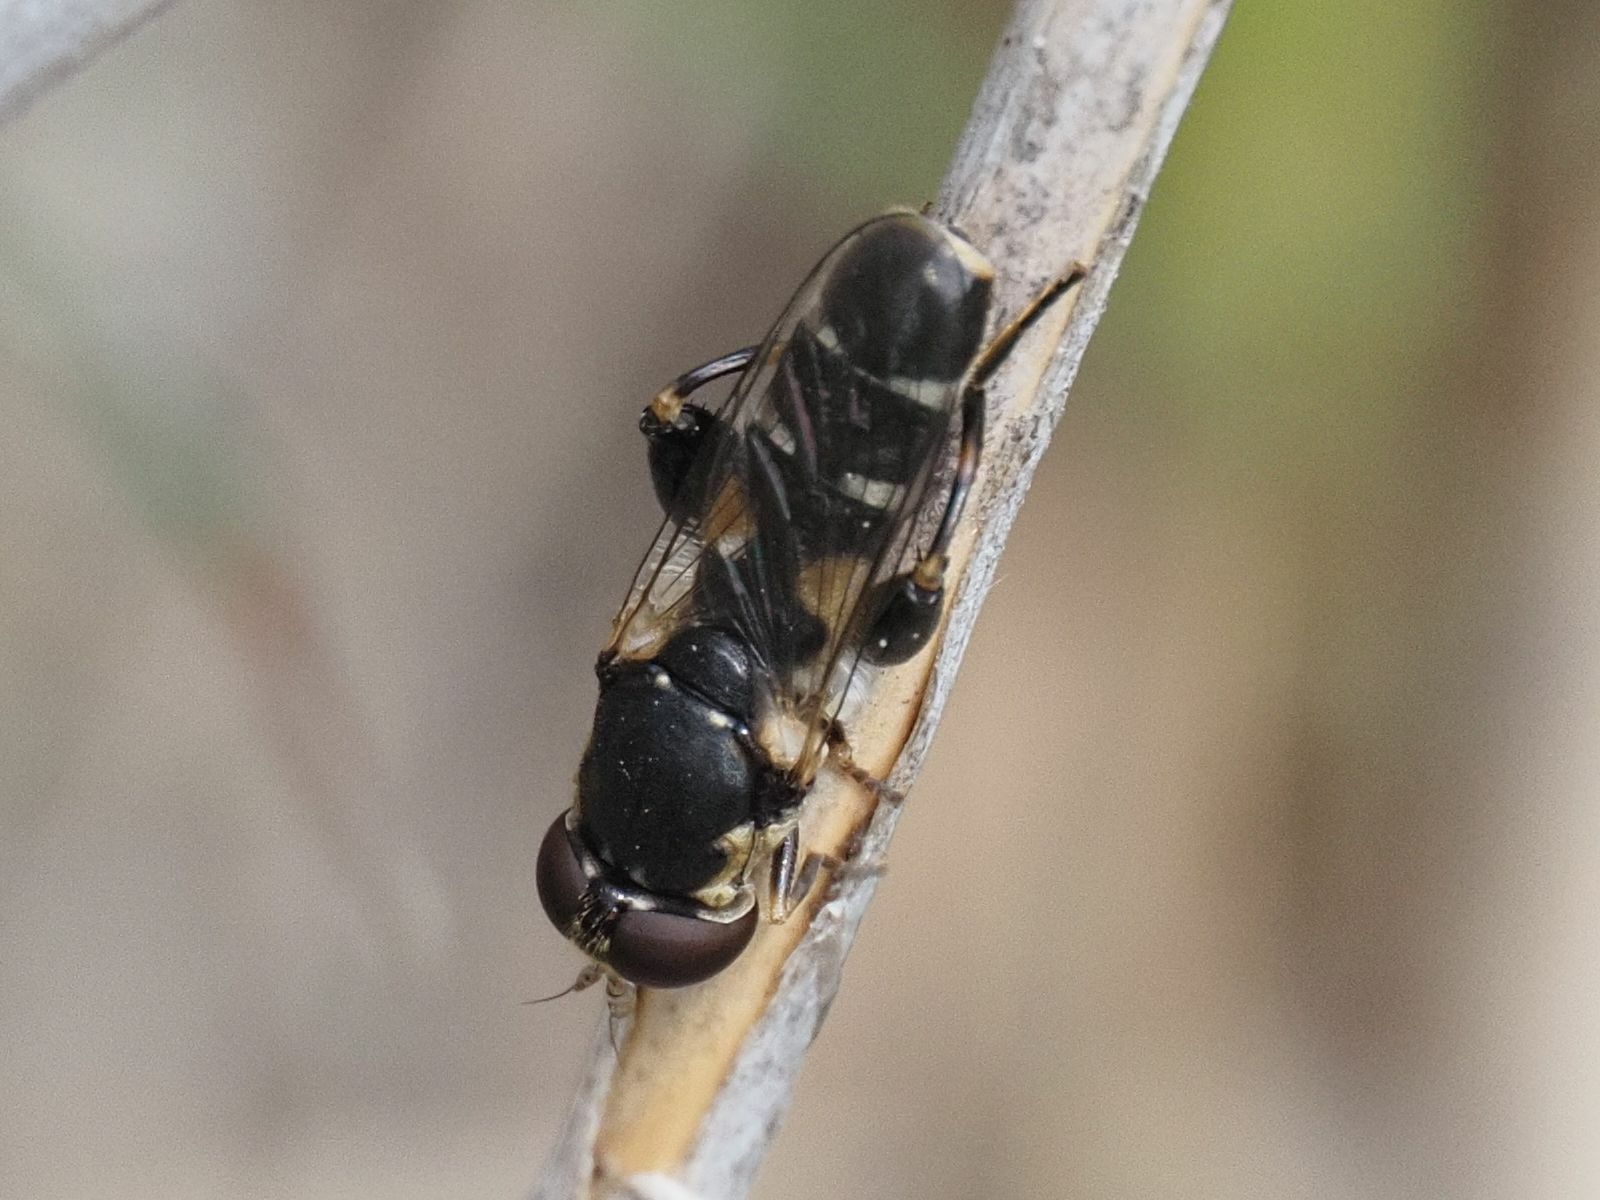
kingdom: Animalia
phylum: Arthropoda
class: Insecta
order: Diptera
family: Syrphidae
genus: Syritta
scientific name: Syritta pipiens
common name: Hover fly
